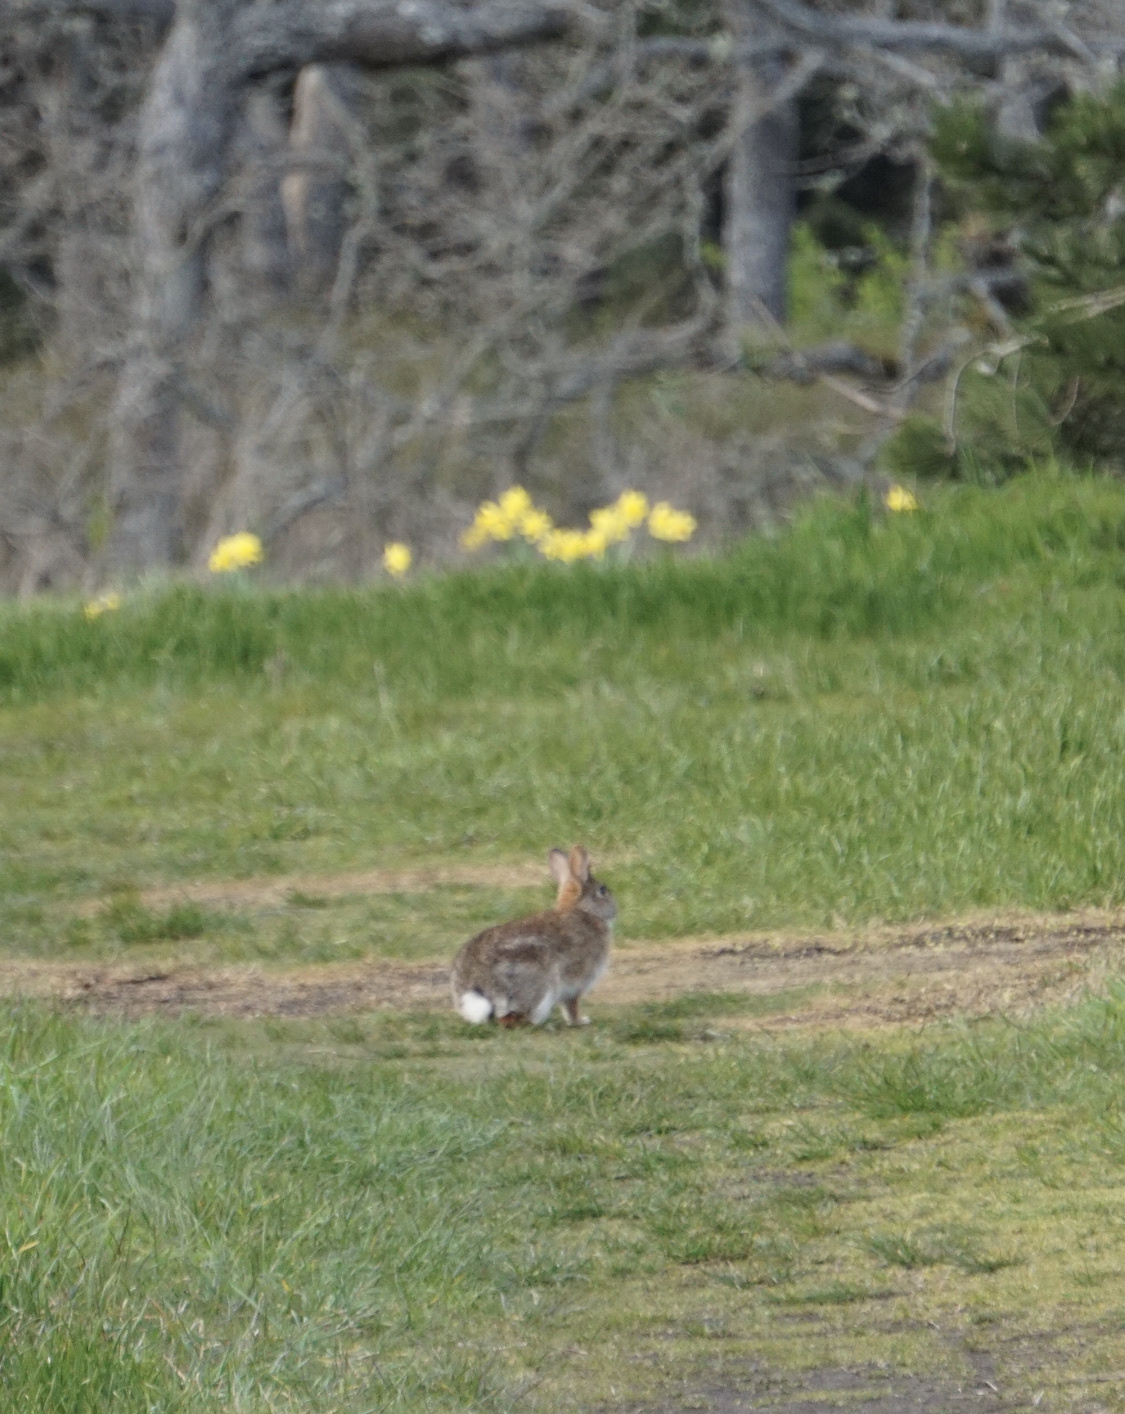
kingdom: Animalia
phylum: Chordata
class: Mammalia
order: Lagomorpha
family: Leporidae
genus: Sylvilagus
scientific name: Sylvilagus floridanus
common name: Eastern cottontail
